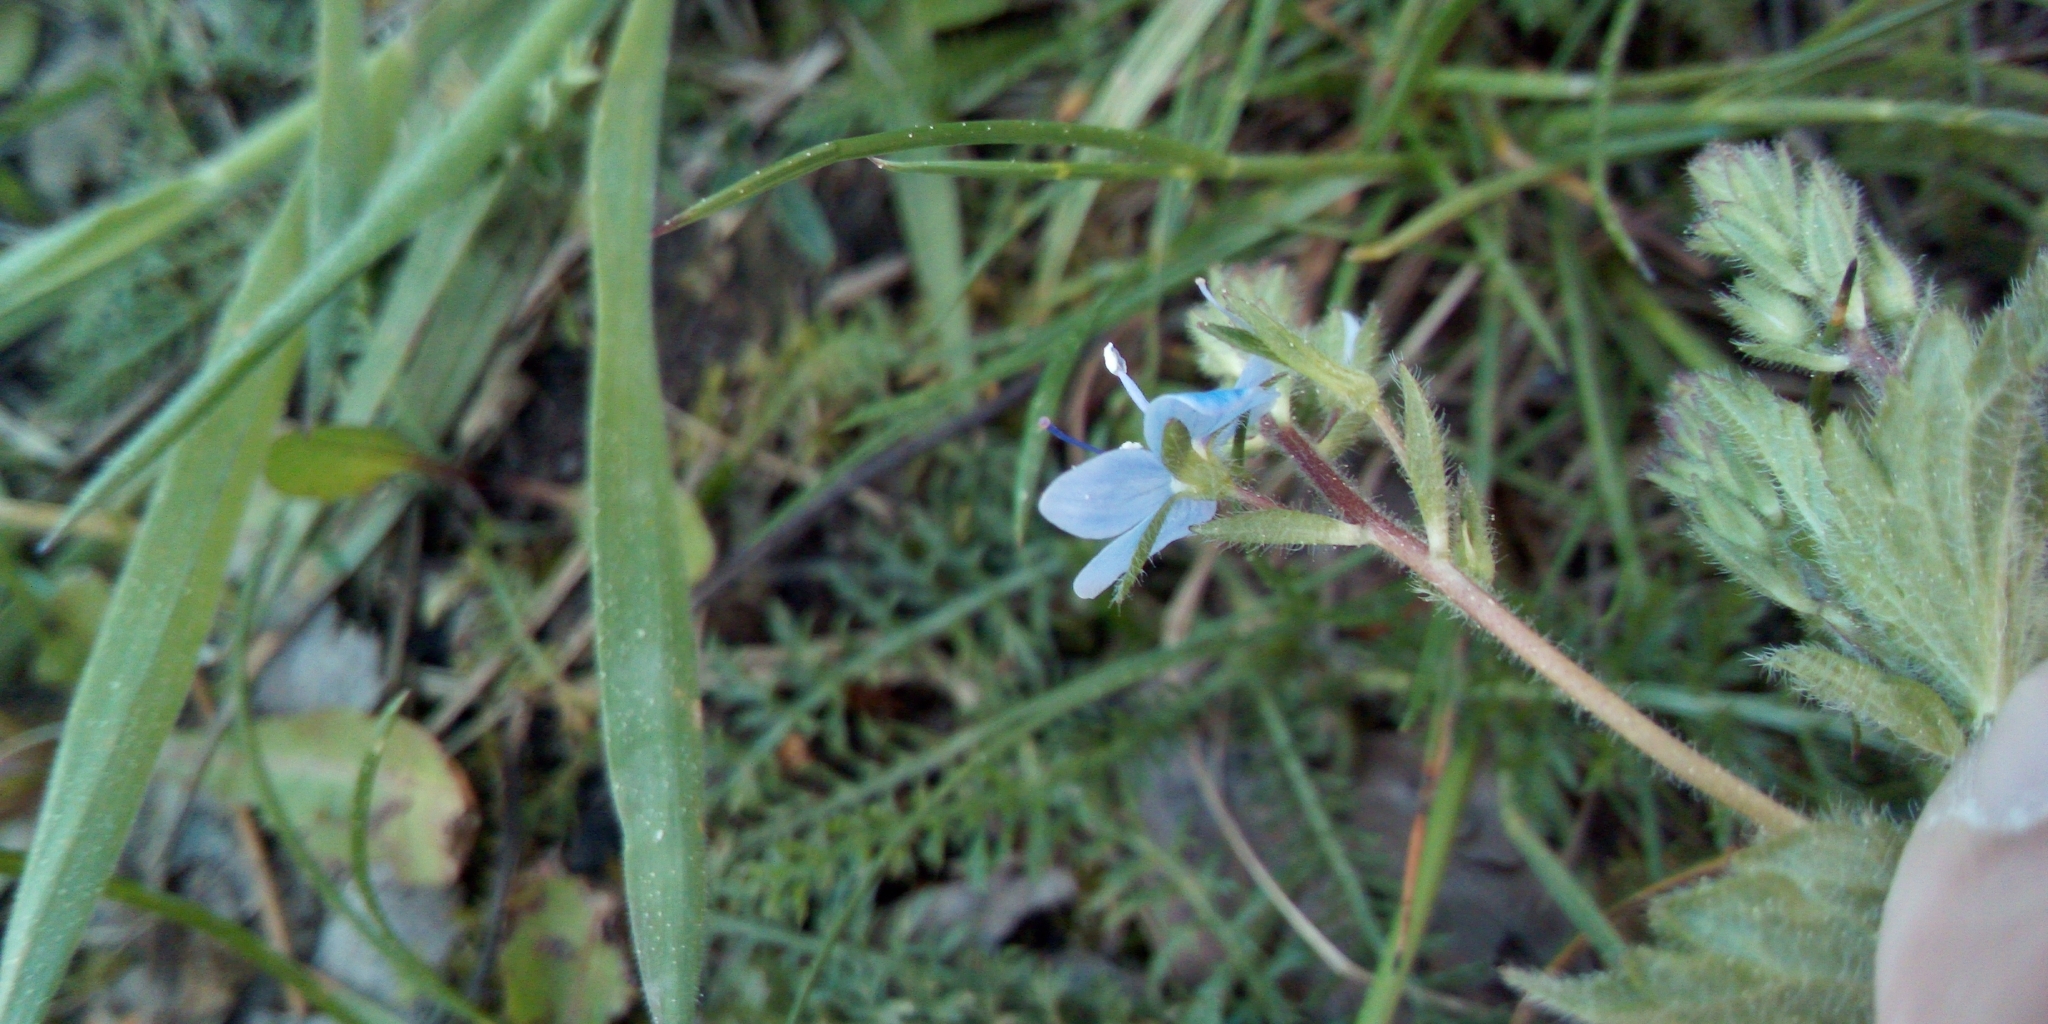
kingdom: Plantae
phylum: Tracheophyta
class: Magnoliopsida
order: Lamiales
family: Plantaginaceae
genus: Veronica
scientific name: Veronica chamaedrys
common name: Germander speedwell
